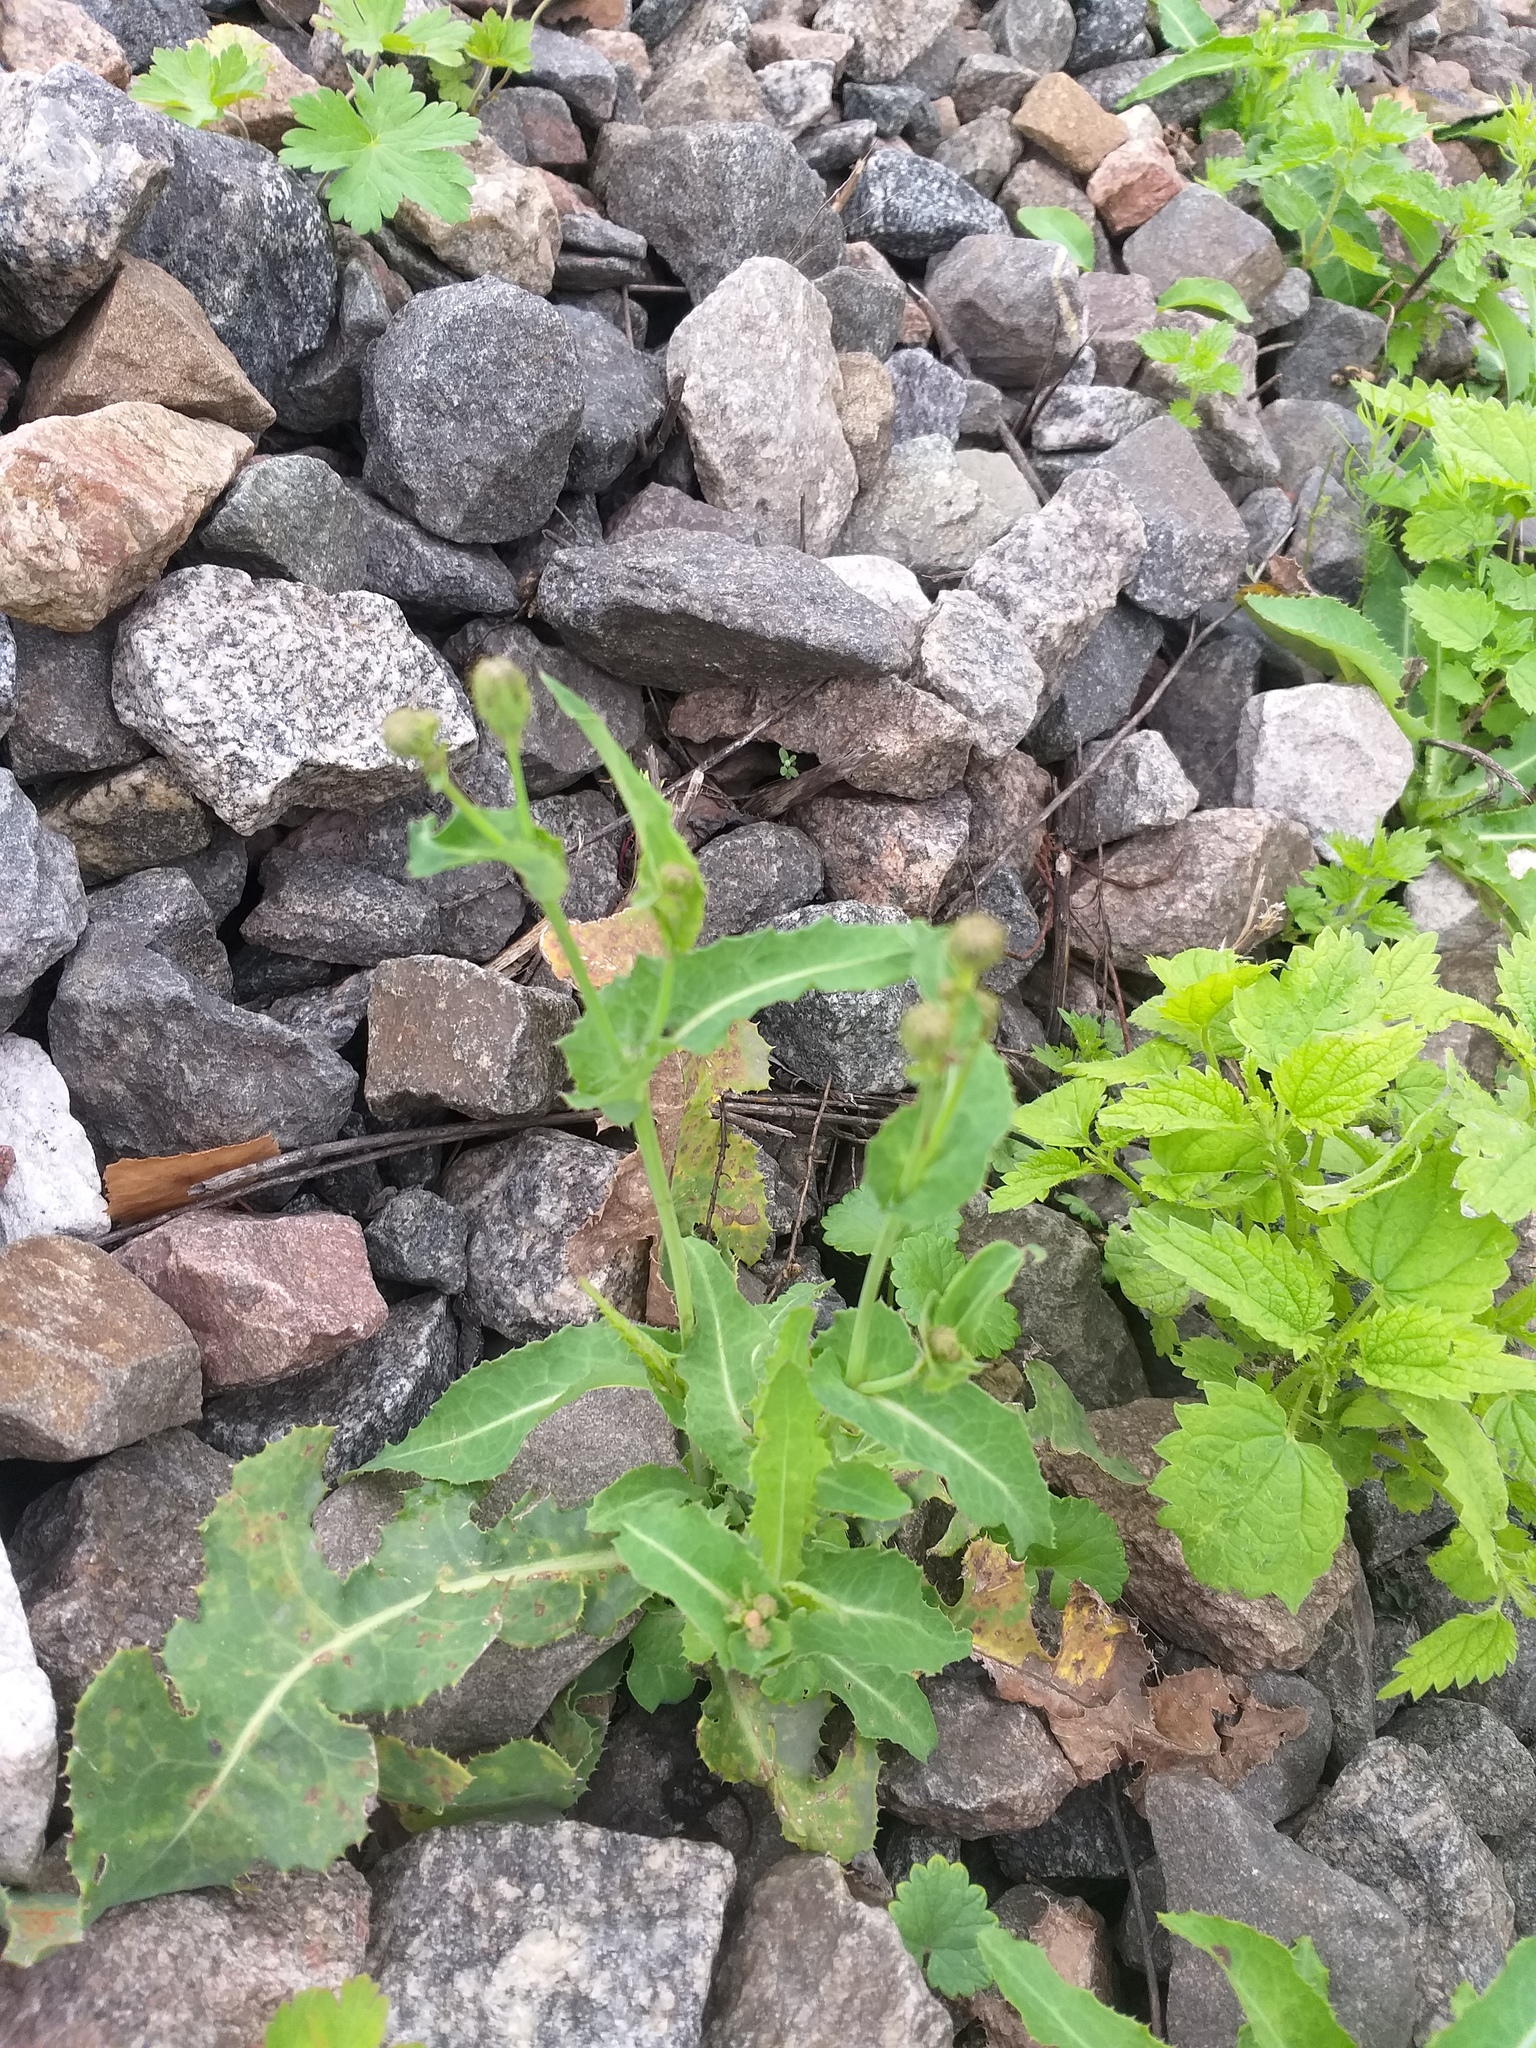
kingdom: Plantae
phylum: Tracheophyta
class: Magnoliopsida
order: Asterales
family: Asteraceae
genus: Sonchus
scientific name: Sonchus arvensis
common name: Perennial sow-thistle
